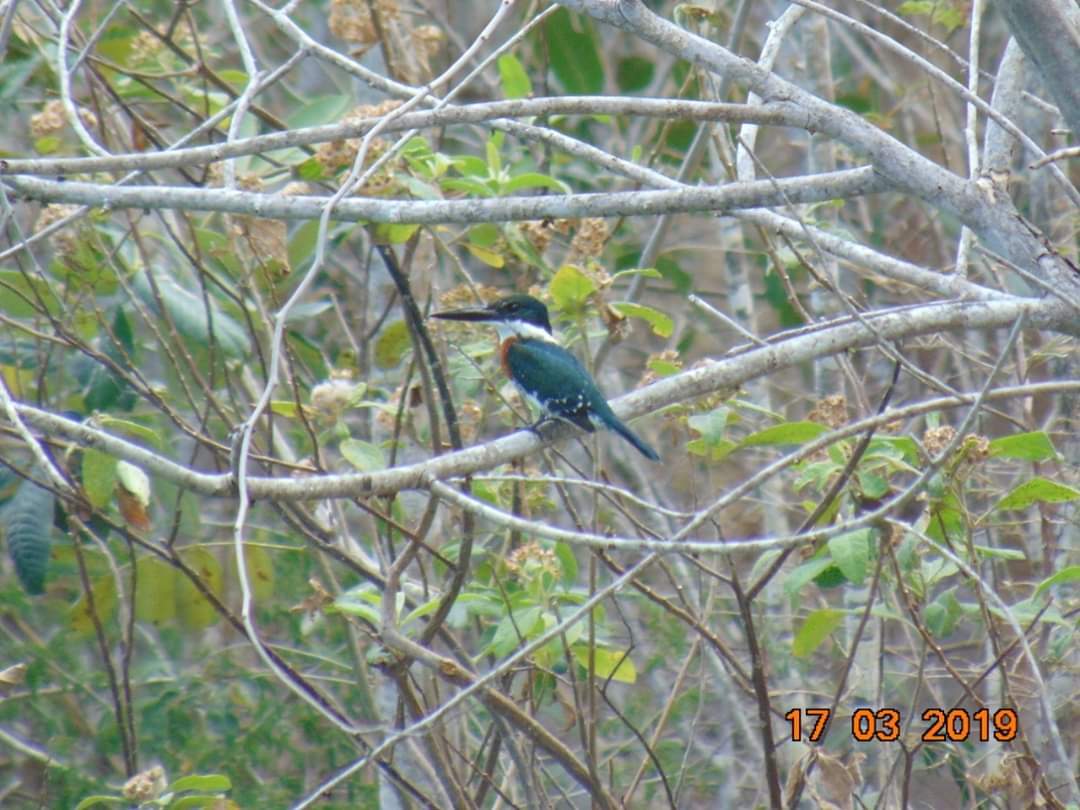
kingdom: Animalia
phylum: Chordata
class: Aves
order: Coraciiformes
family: Alcedinidae
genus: Chloroceryle
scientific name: Chloroceryle americana
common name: Green kingfisher
